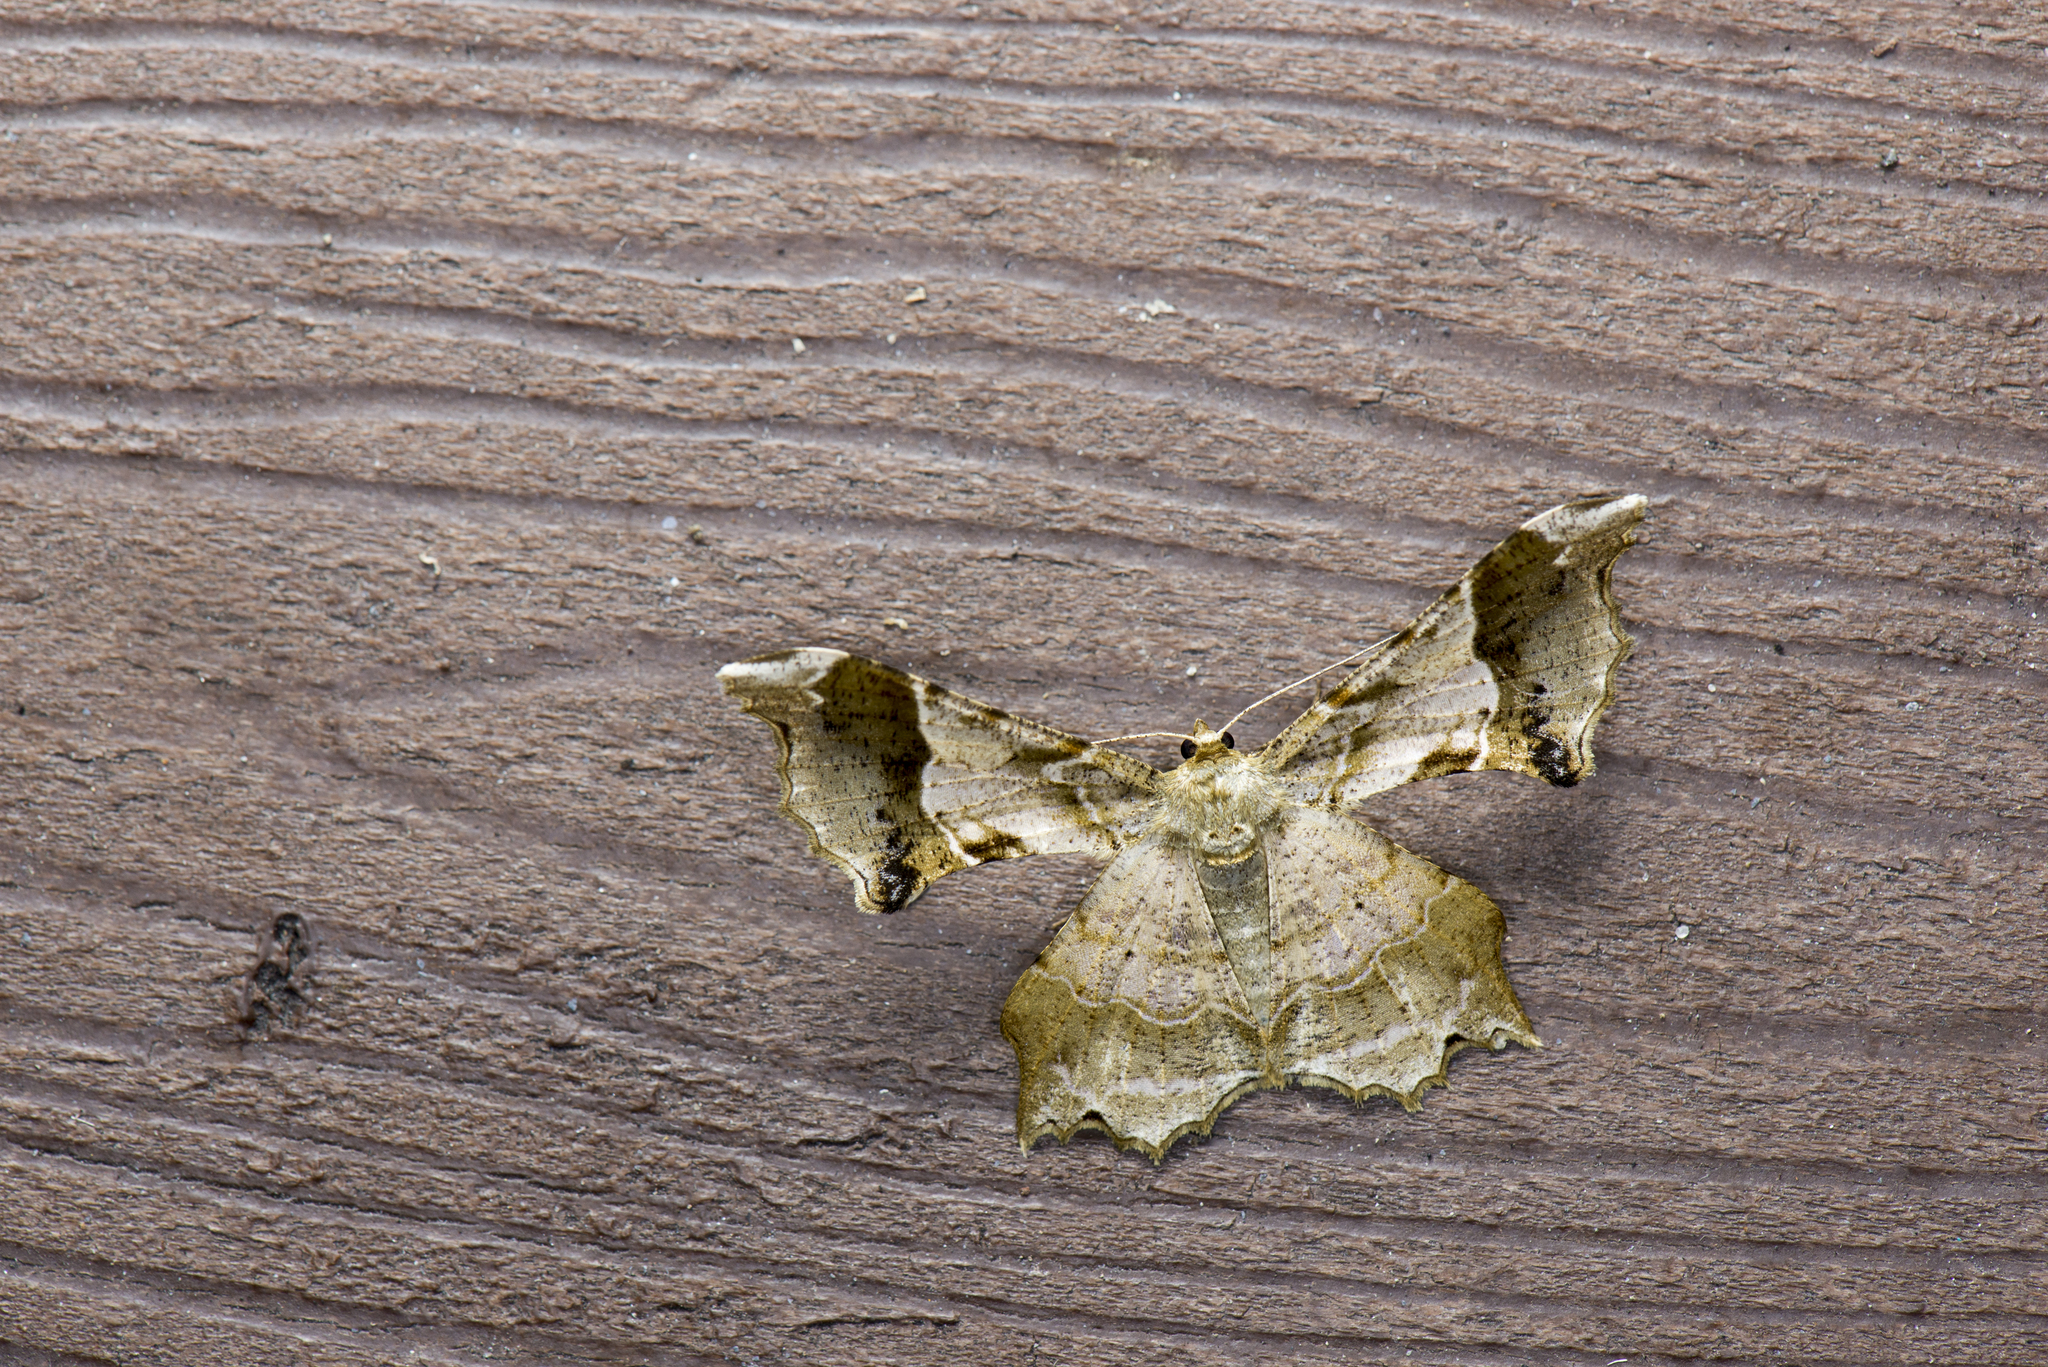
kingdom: Animalia
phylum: Arthropoda
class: Insecta
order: Lepidoptera
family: Geometridae
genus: Krananda
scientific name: Krananda oliveomarginata
